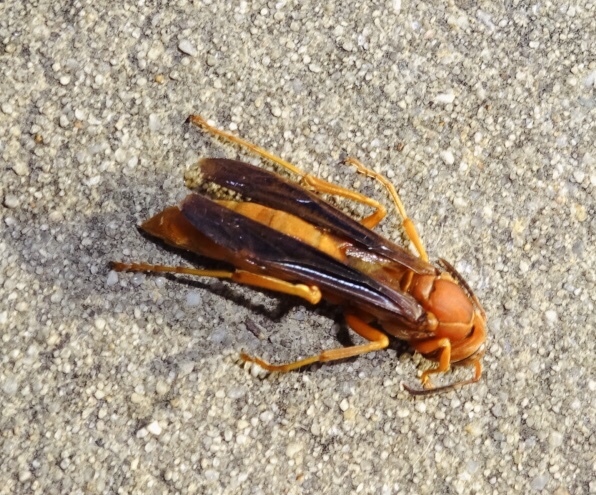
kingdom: Animalia
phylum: Arthropoda
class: Insecta
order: Hymenoptera
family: Eumenidae
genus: Polistes
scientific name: Polistes carolina
